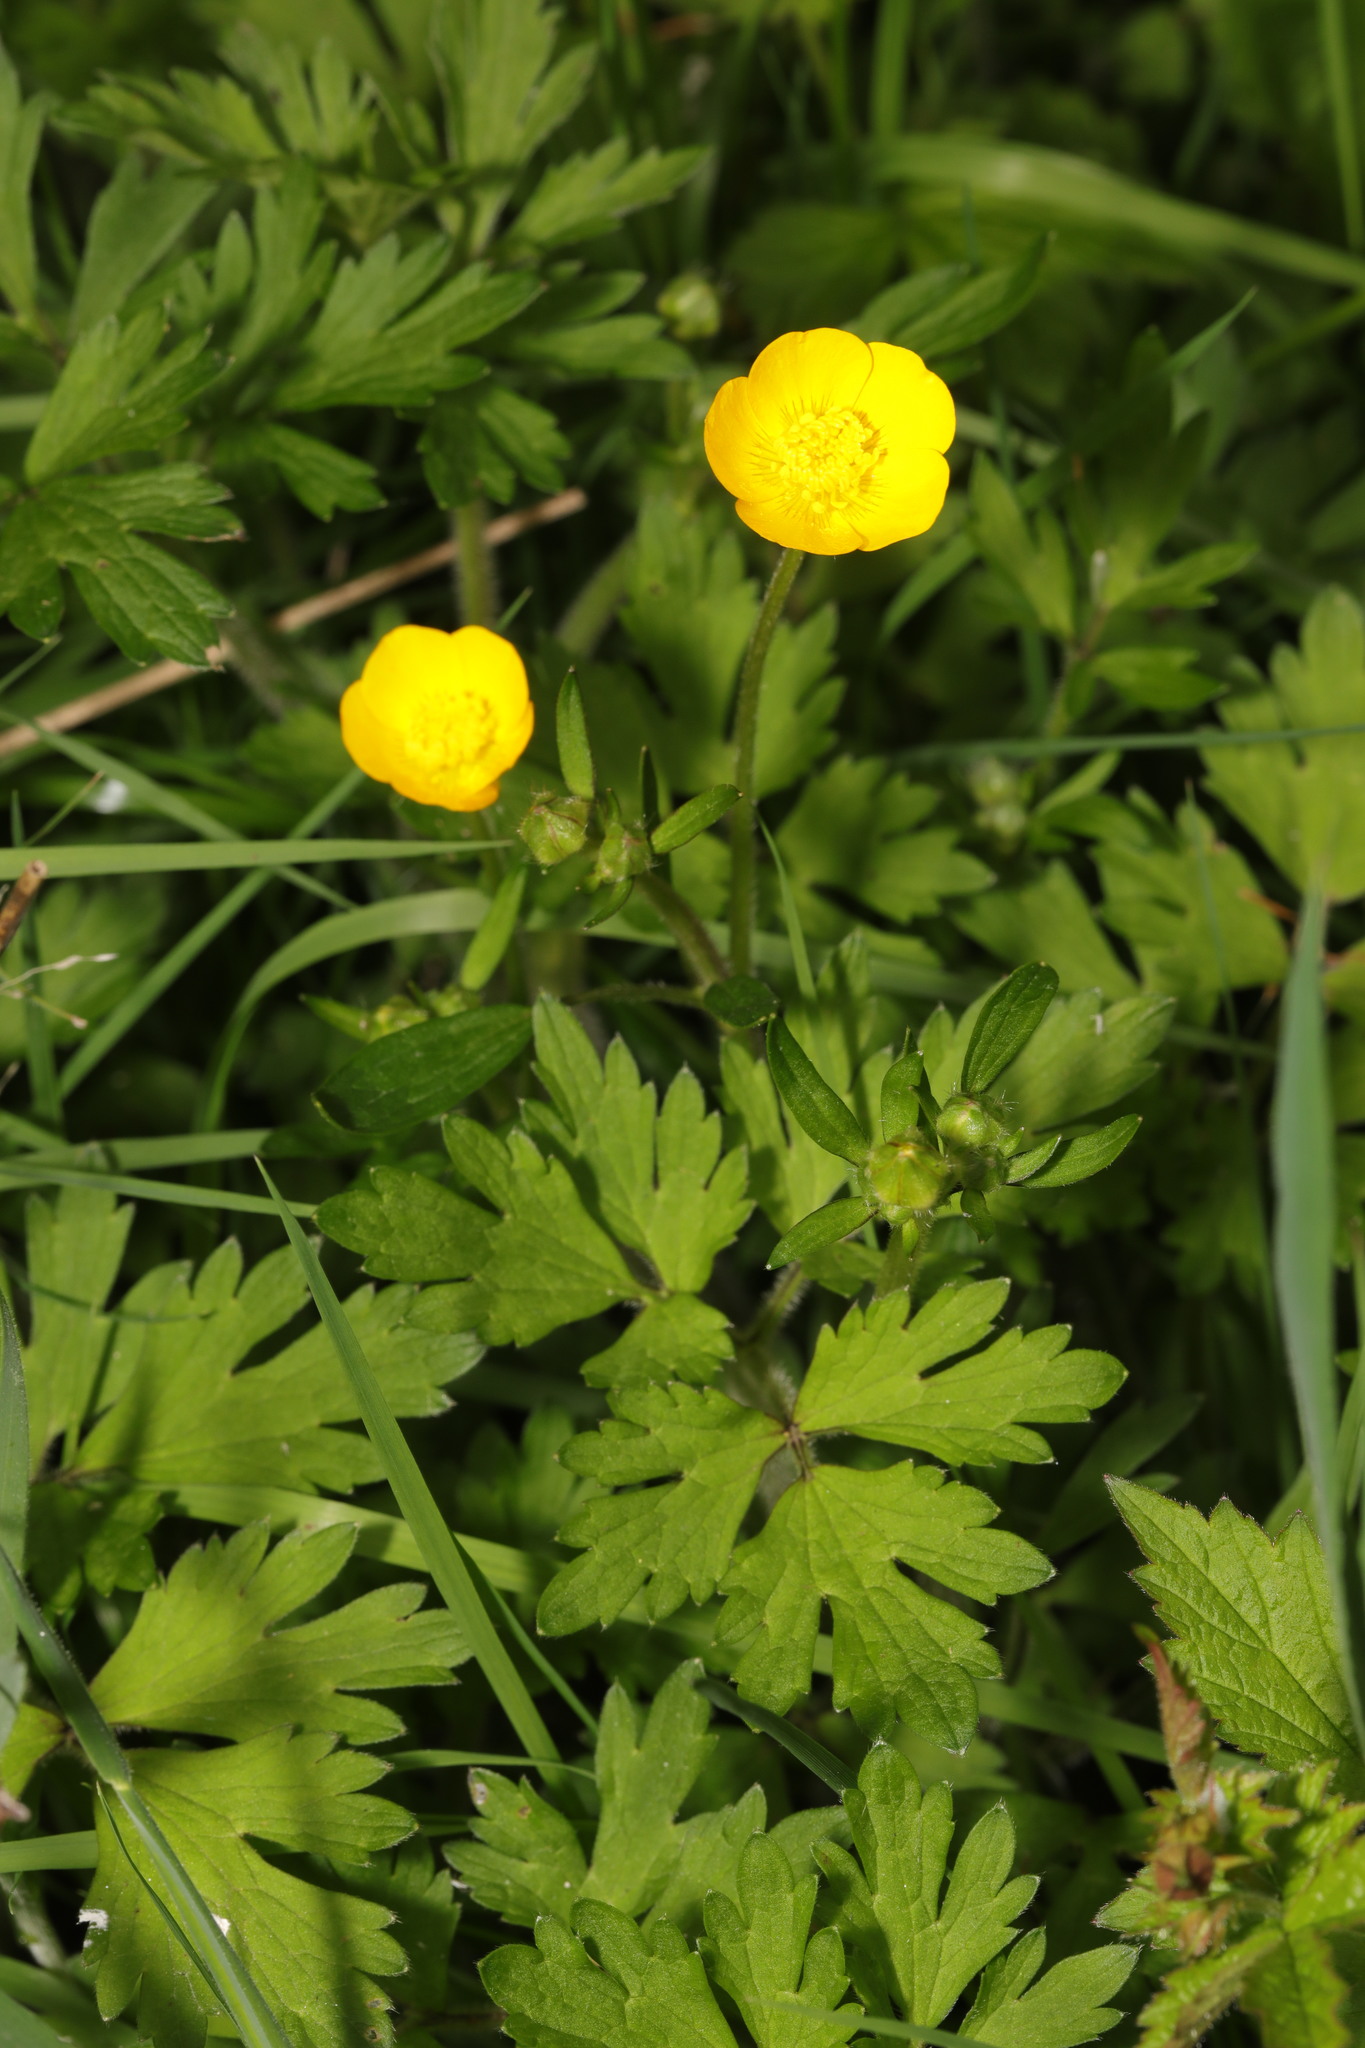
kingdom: Plantae
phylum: Tracheophyta
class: Magnoliopsida
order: Ranunculales
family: Ranunculaceae
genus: Ranunculus
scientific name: Ranunculus repens
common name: Creeping buttercup
